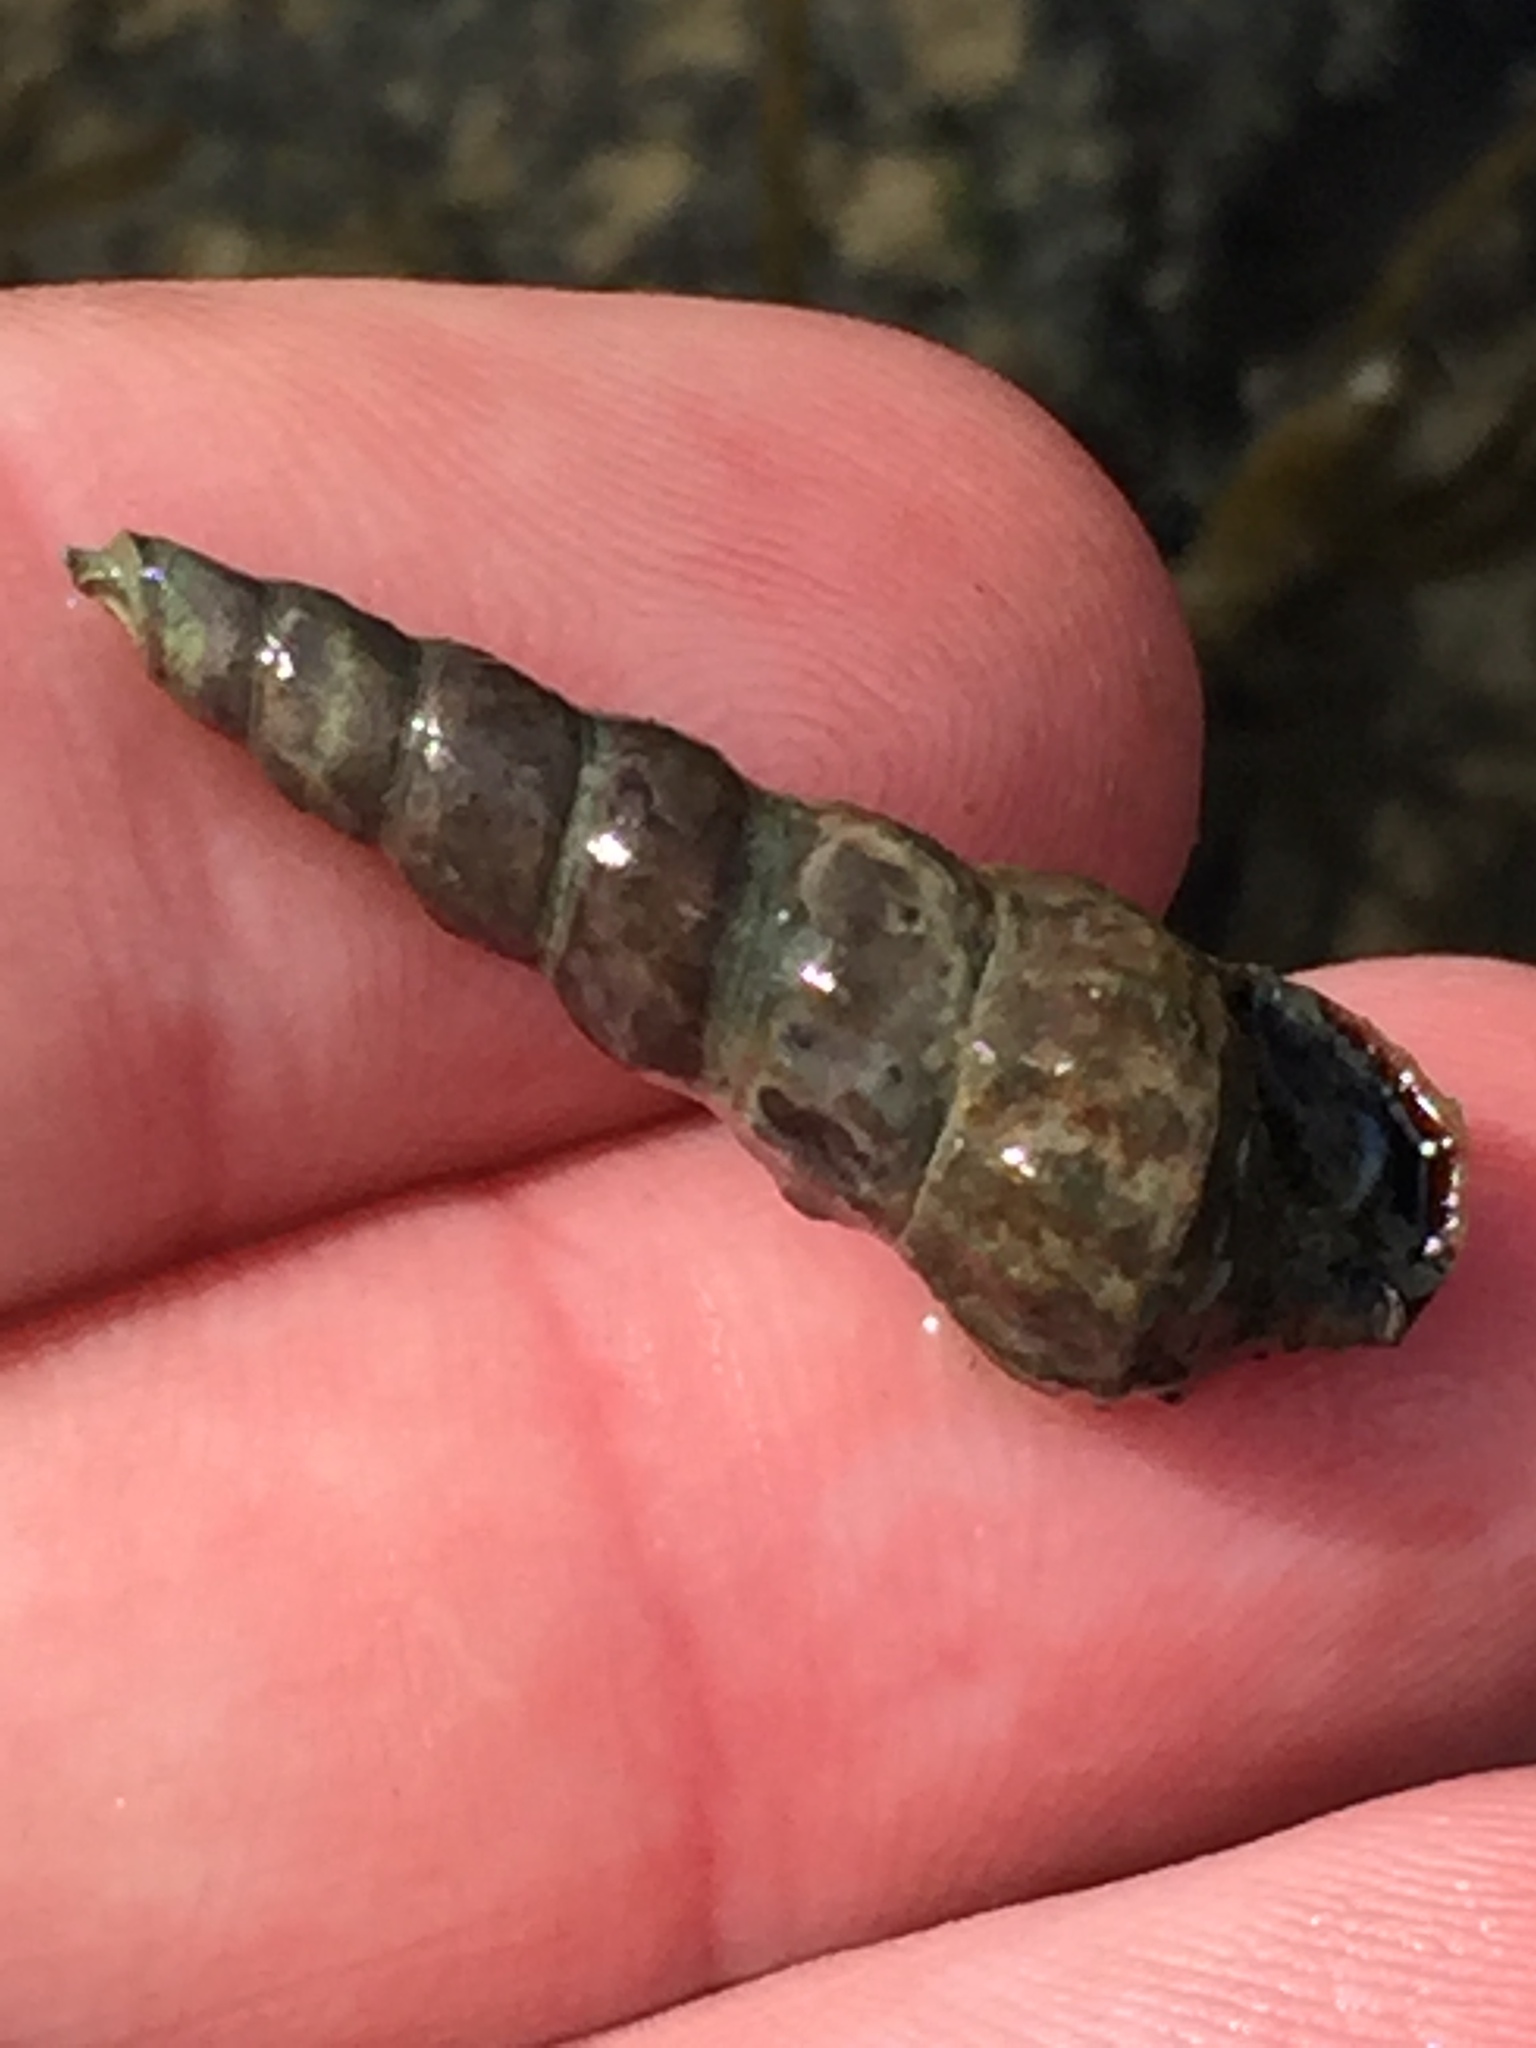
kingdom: Animalia
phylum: Mollusca
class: Gastropoda
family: Batillariidae
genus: Zeacumantus
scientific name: Zeacumantus lutulentus
